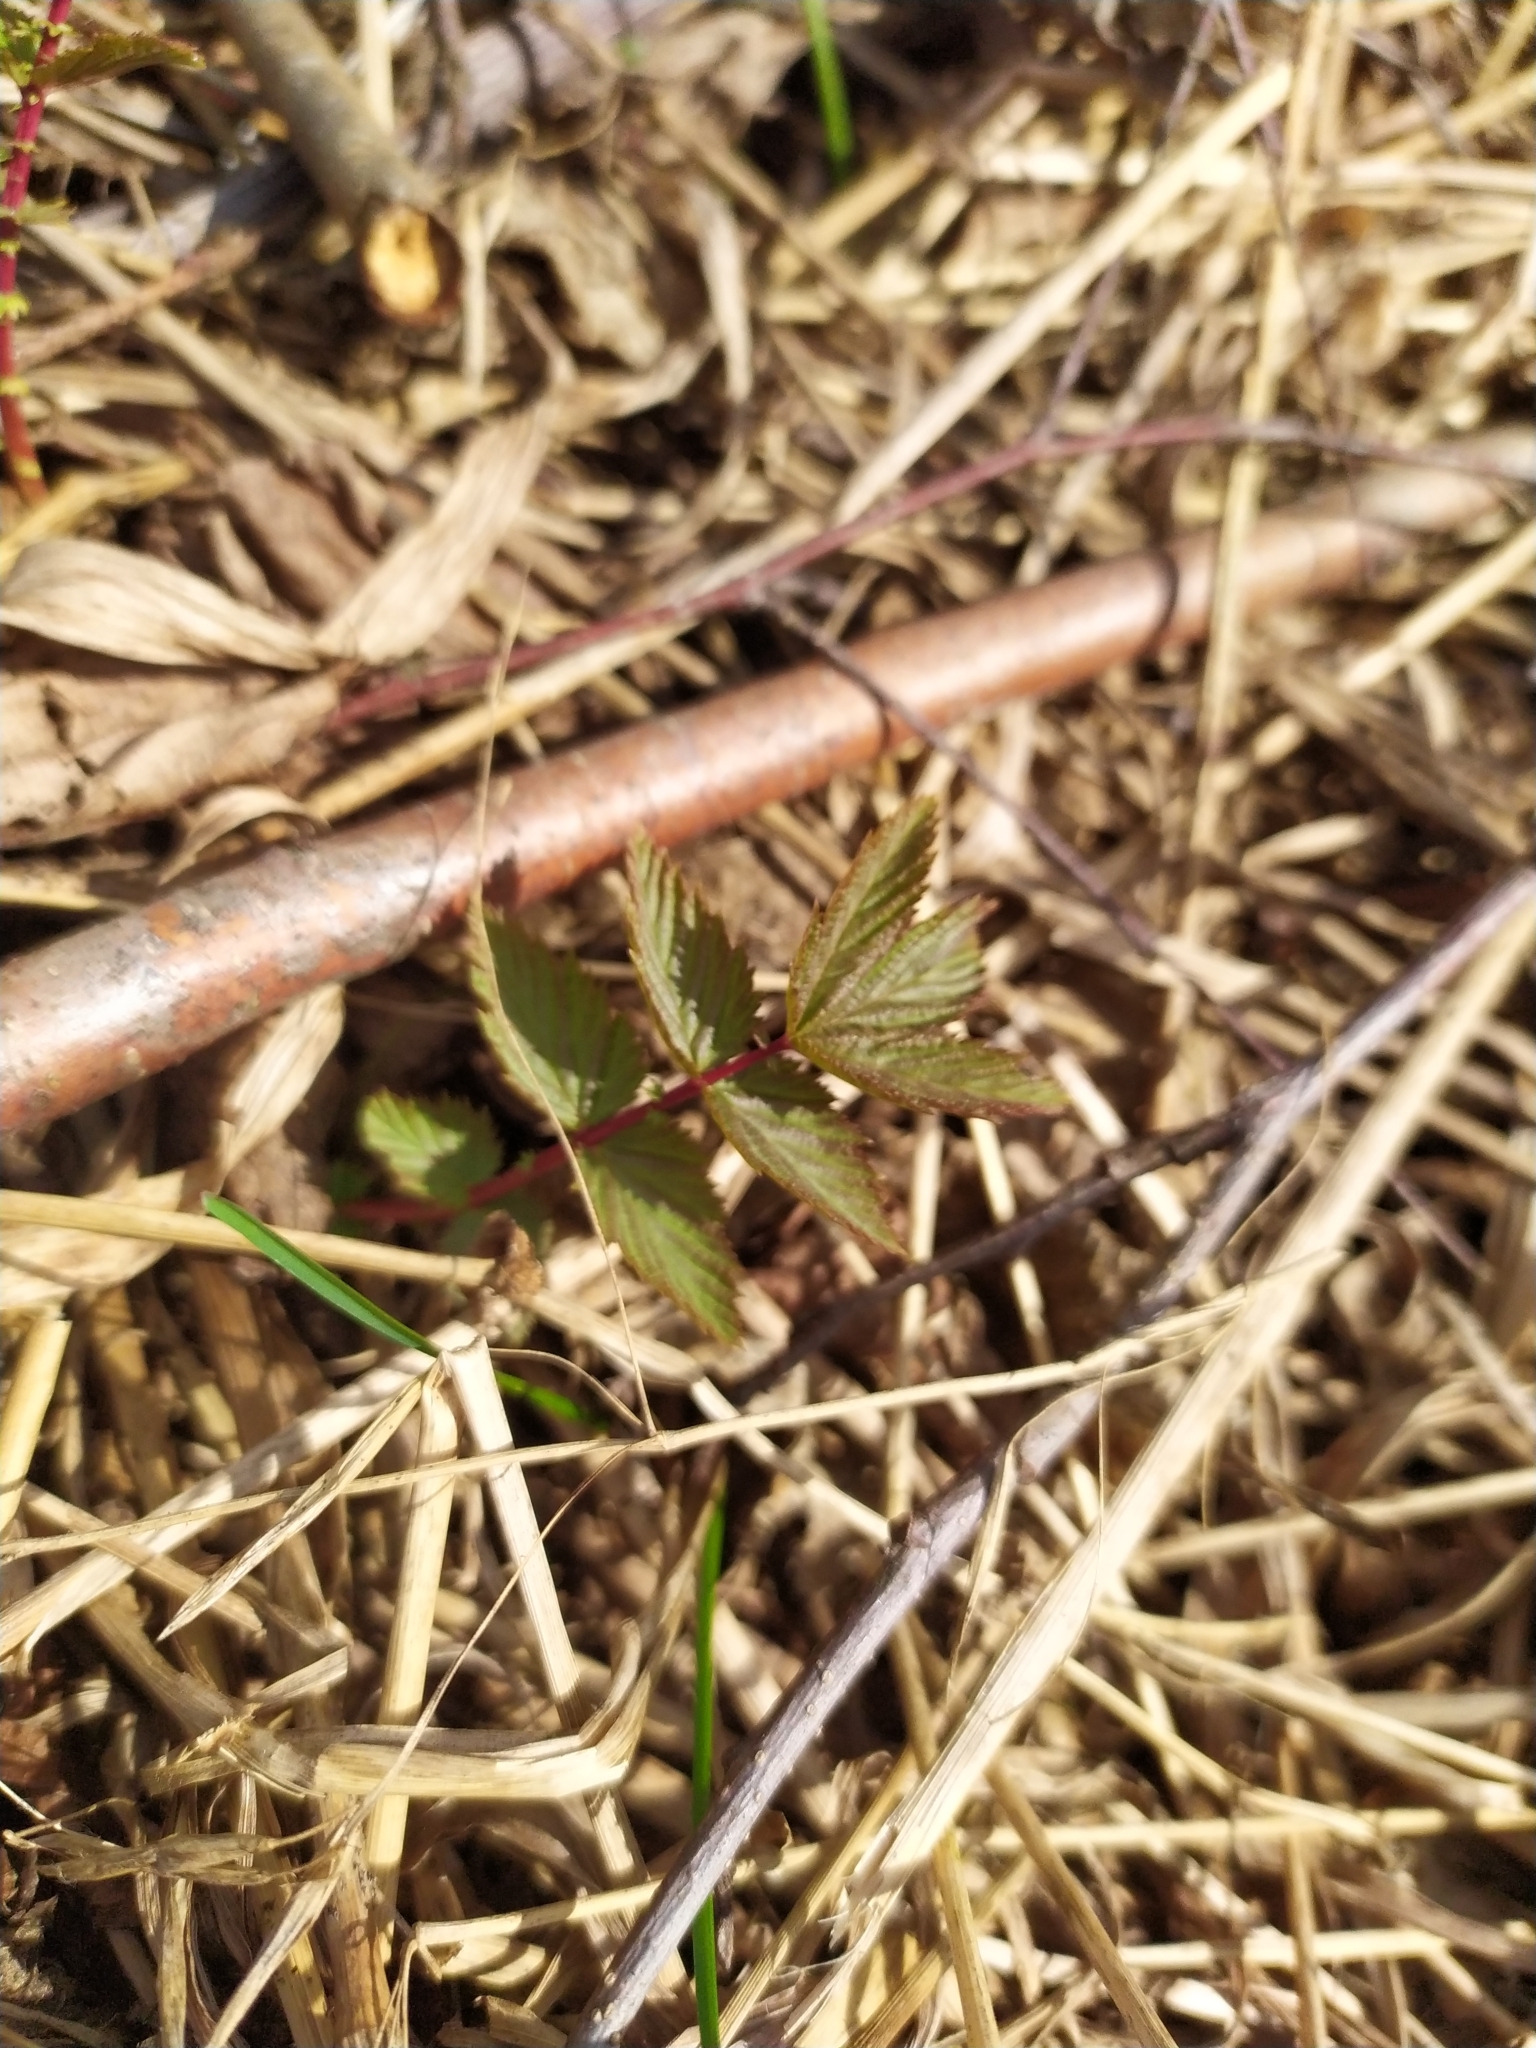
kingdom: Plantae
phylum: Tracheophyta
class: Magnoliopsida
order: Rosales
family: Rosaceae
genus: Filipendula
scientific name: Filipendula ulmaria
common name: Meadowsweet
